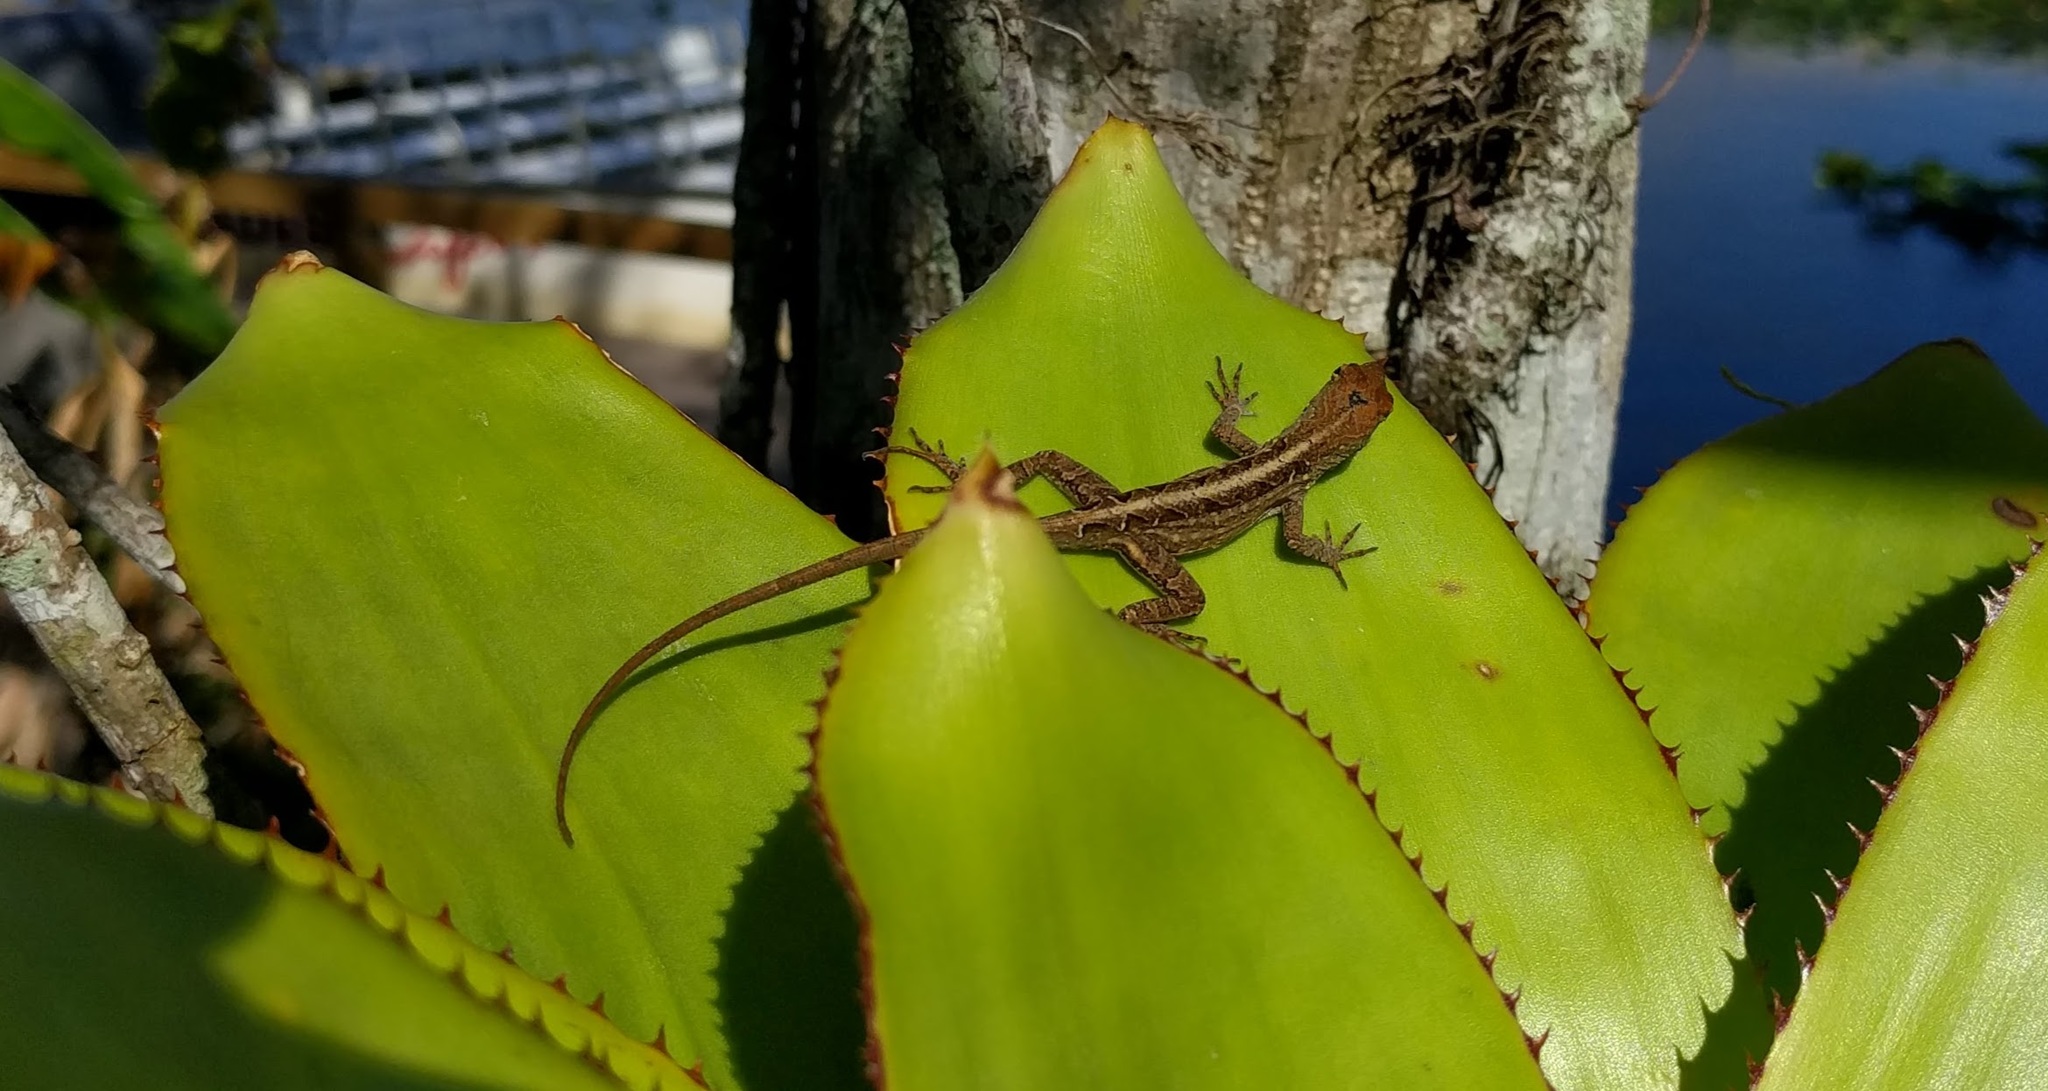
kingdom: Animalia
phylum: Chordata
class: Squamata
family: Dactyloidae
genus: Anolis
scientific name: Anolis sagrei
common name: Brown anole
